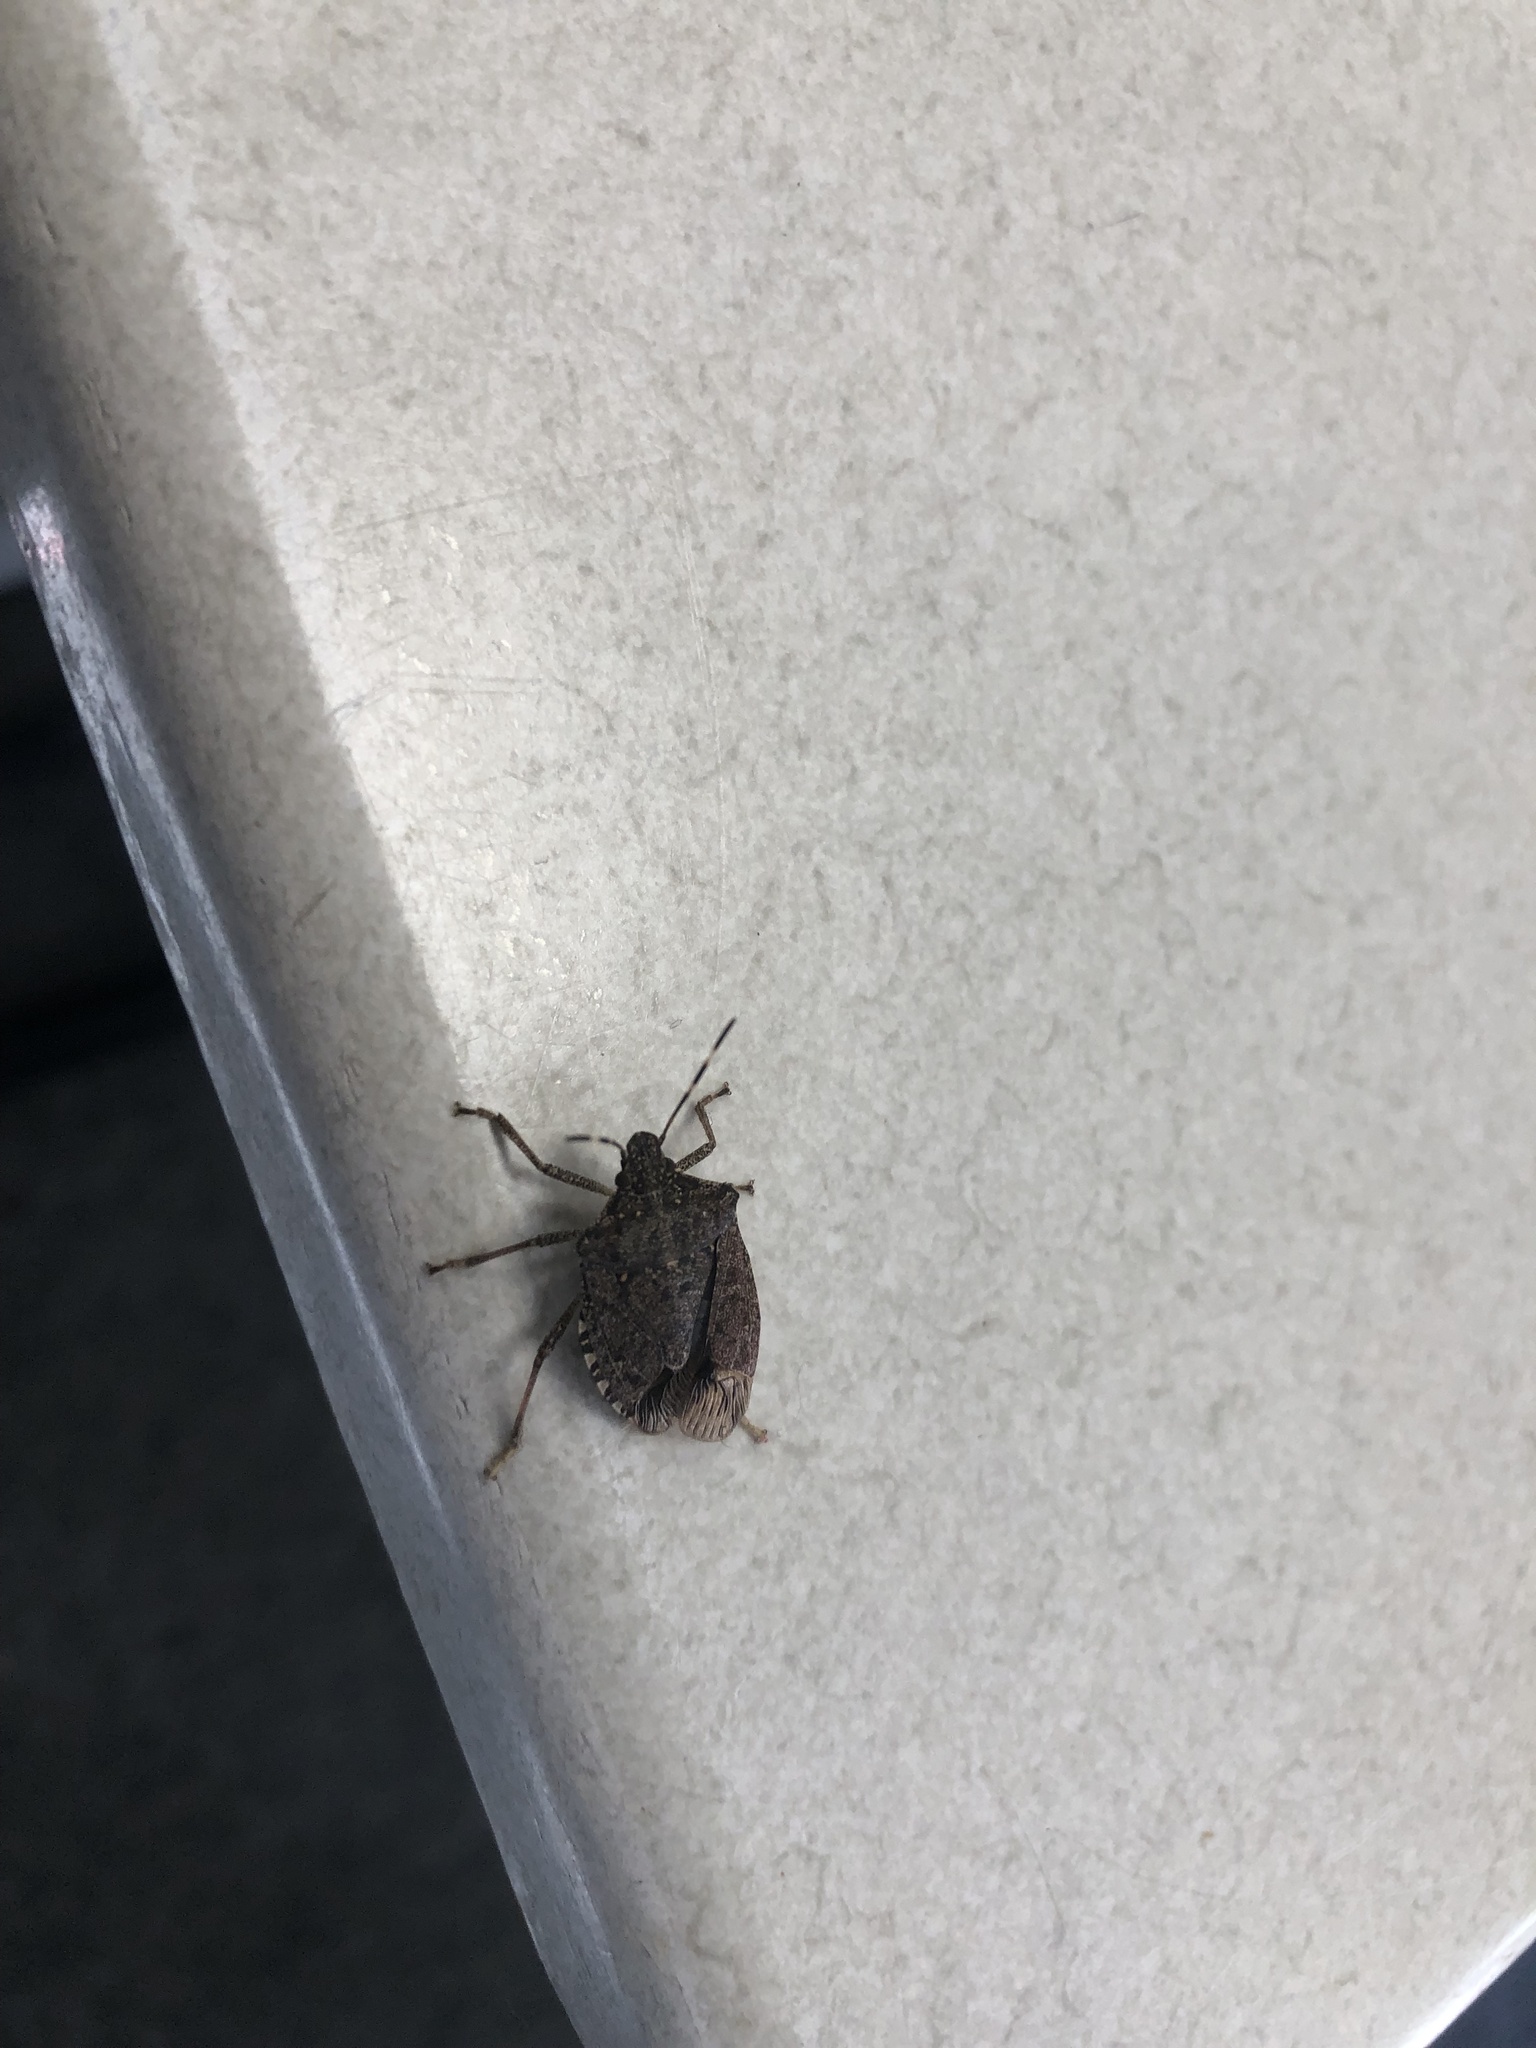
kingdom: Animalia
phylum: Arthropoda
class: Insecta
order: Hemiptera
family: Pentatomidae
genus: Halyomorpha
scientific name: Halyomorpha halys
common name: Brown marmorated stink bug
